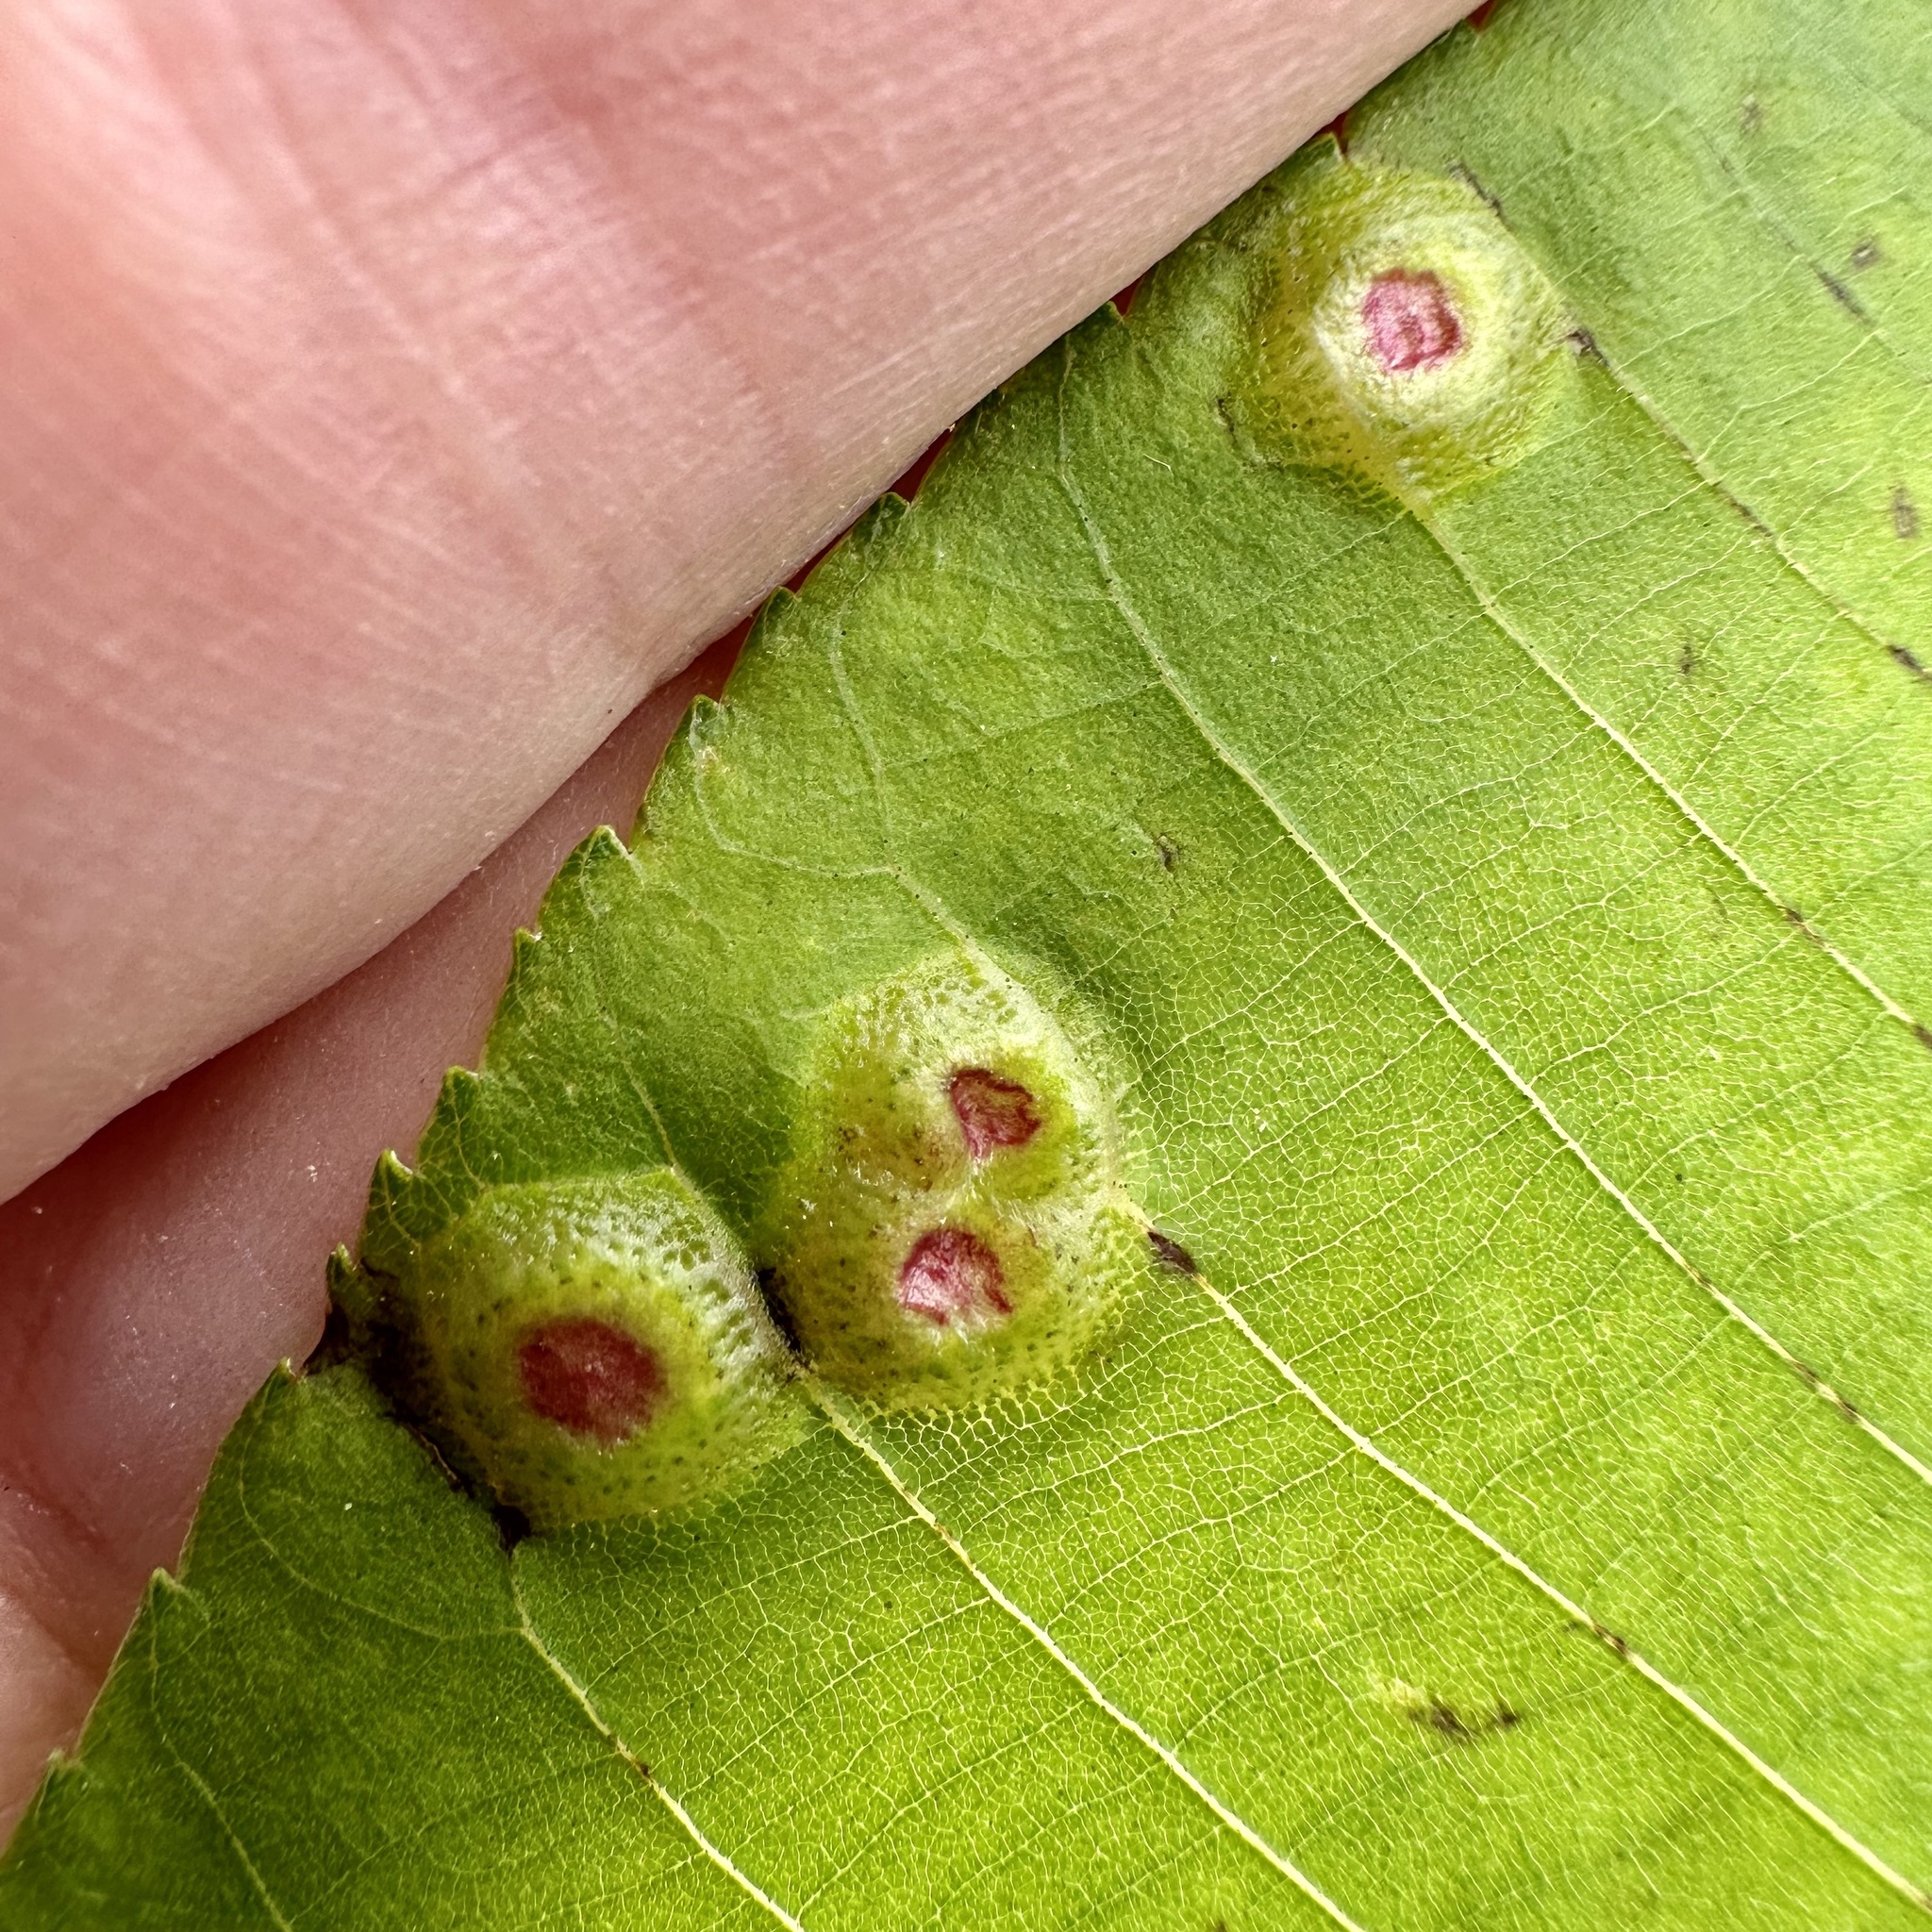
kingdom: Animalia
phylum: Arthropoda
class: Insecta
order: Hemiptera
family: Phylloxeridae
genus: Phylloxera
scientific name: Phylloxera foveola
